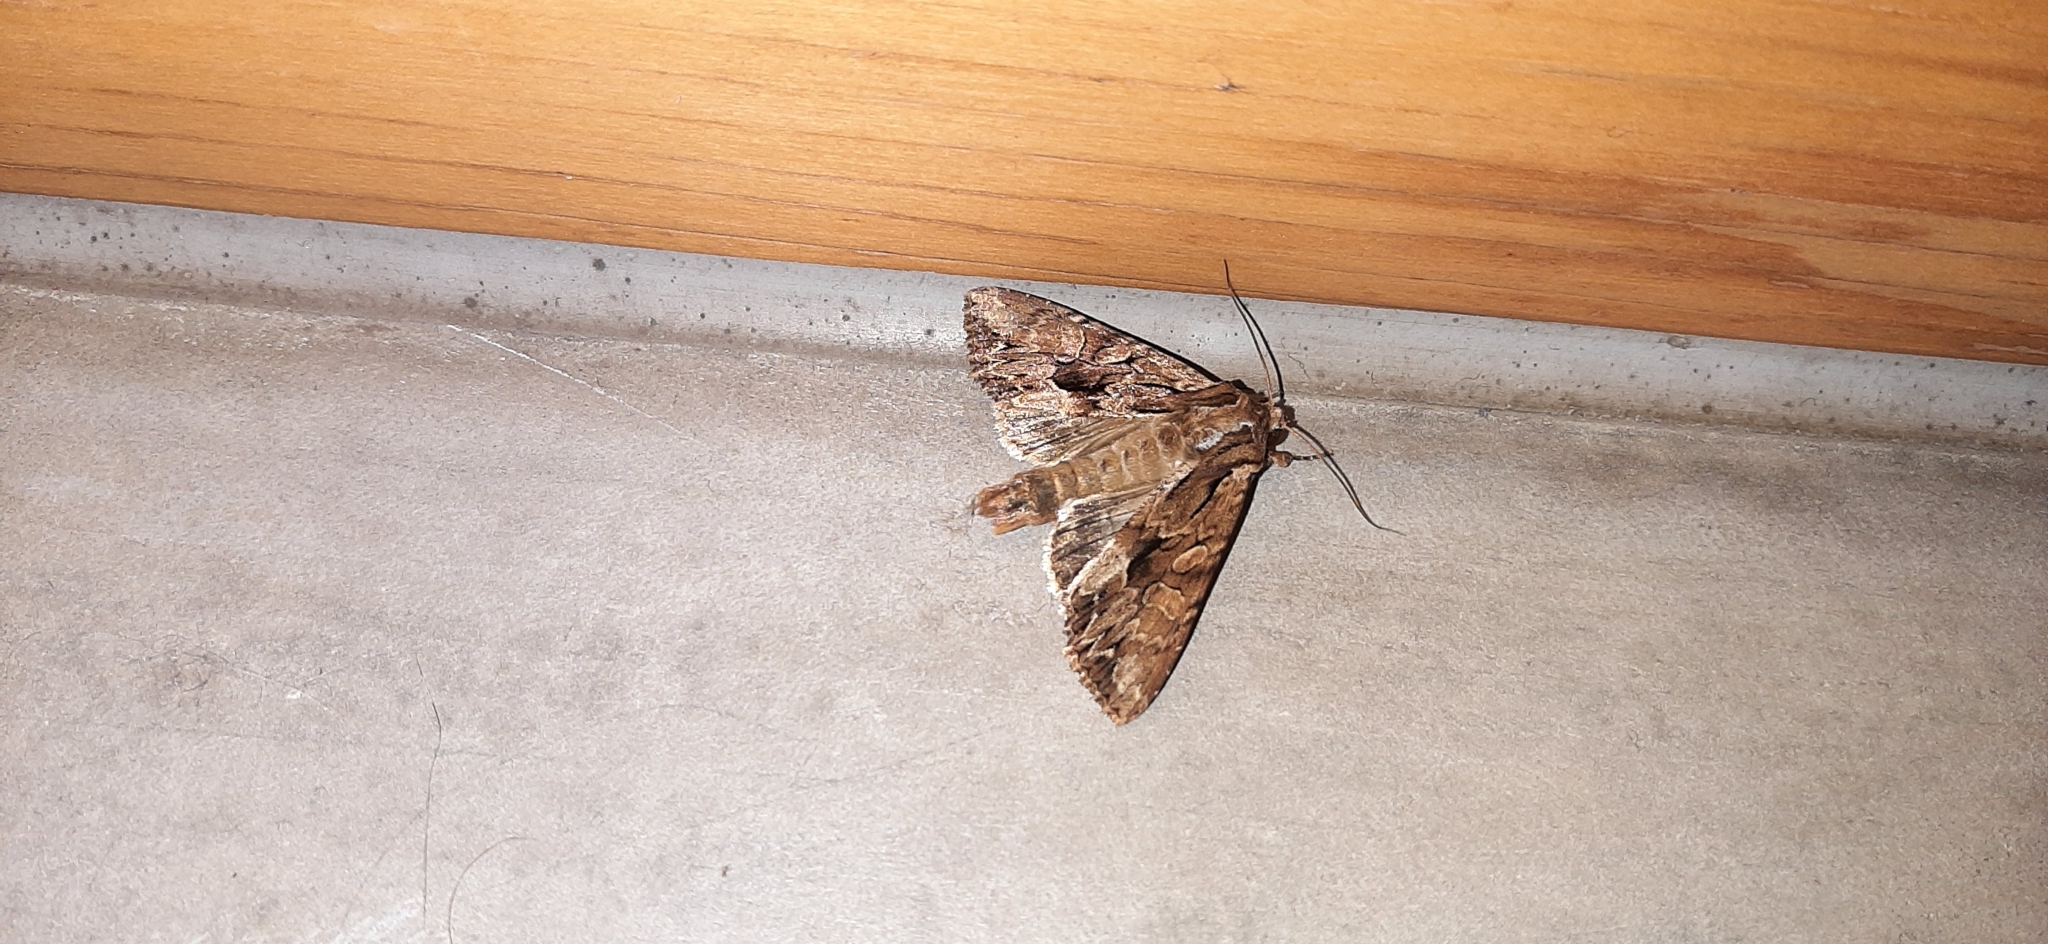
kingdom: Animalia
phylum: Arthropoda
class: Insecta
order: Lepidoptera
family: Noctuidae
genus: Apamea
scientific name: Apamea monoglypha
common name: Dark arches
